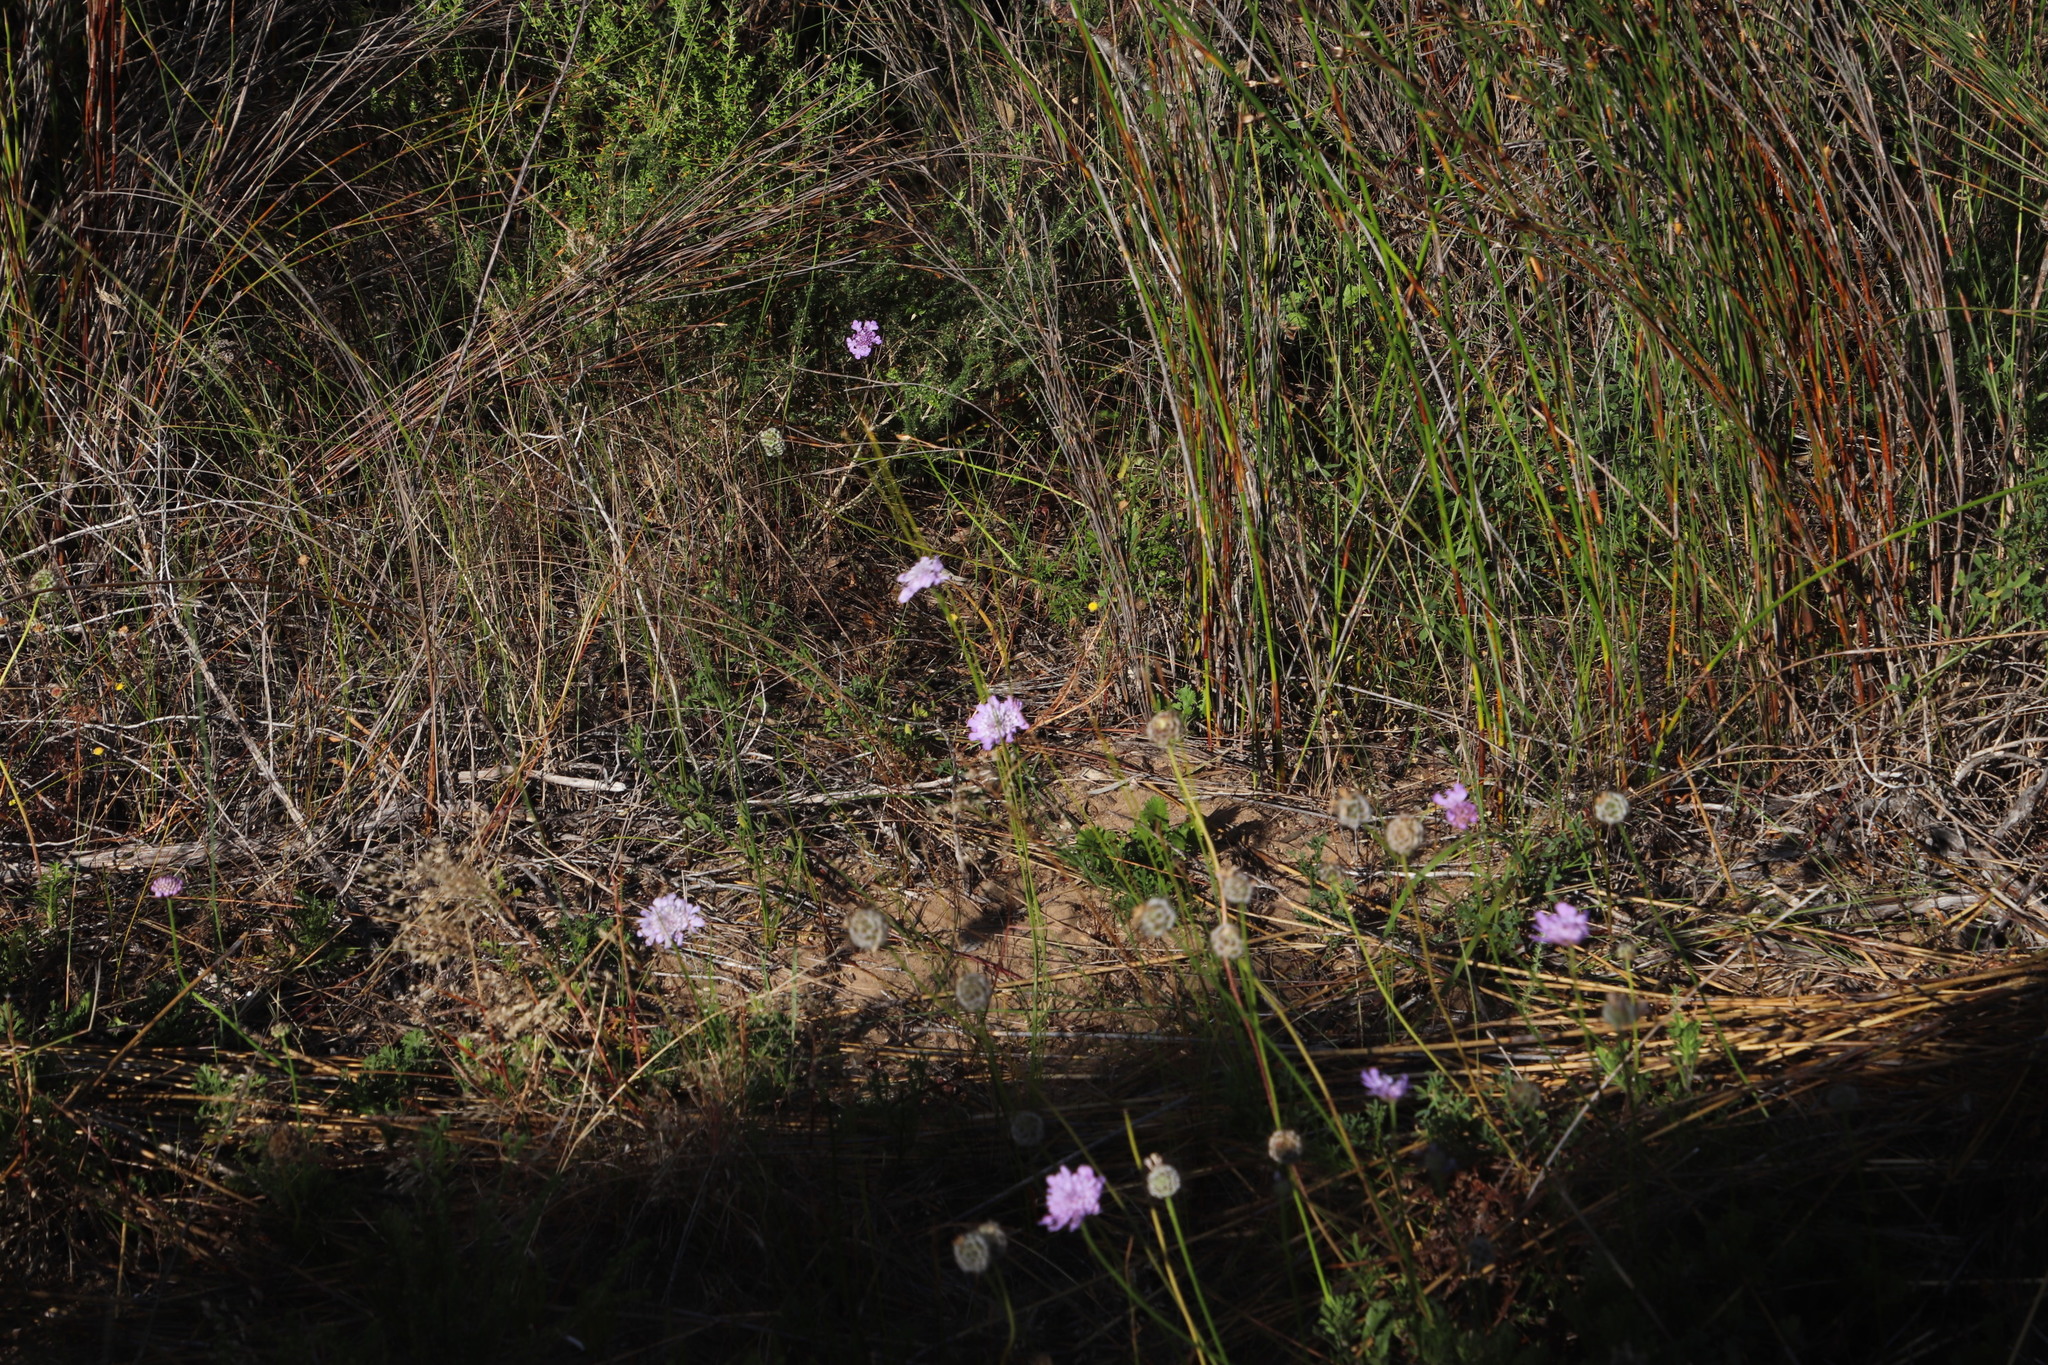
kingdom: Plantae
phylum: Tracheophyta
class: Magnoliopsida
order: Dipsacales
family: Caprifoliaceae
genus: Scabiosa
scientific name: Scabiosa columbaria
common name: Small scabious
